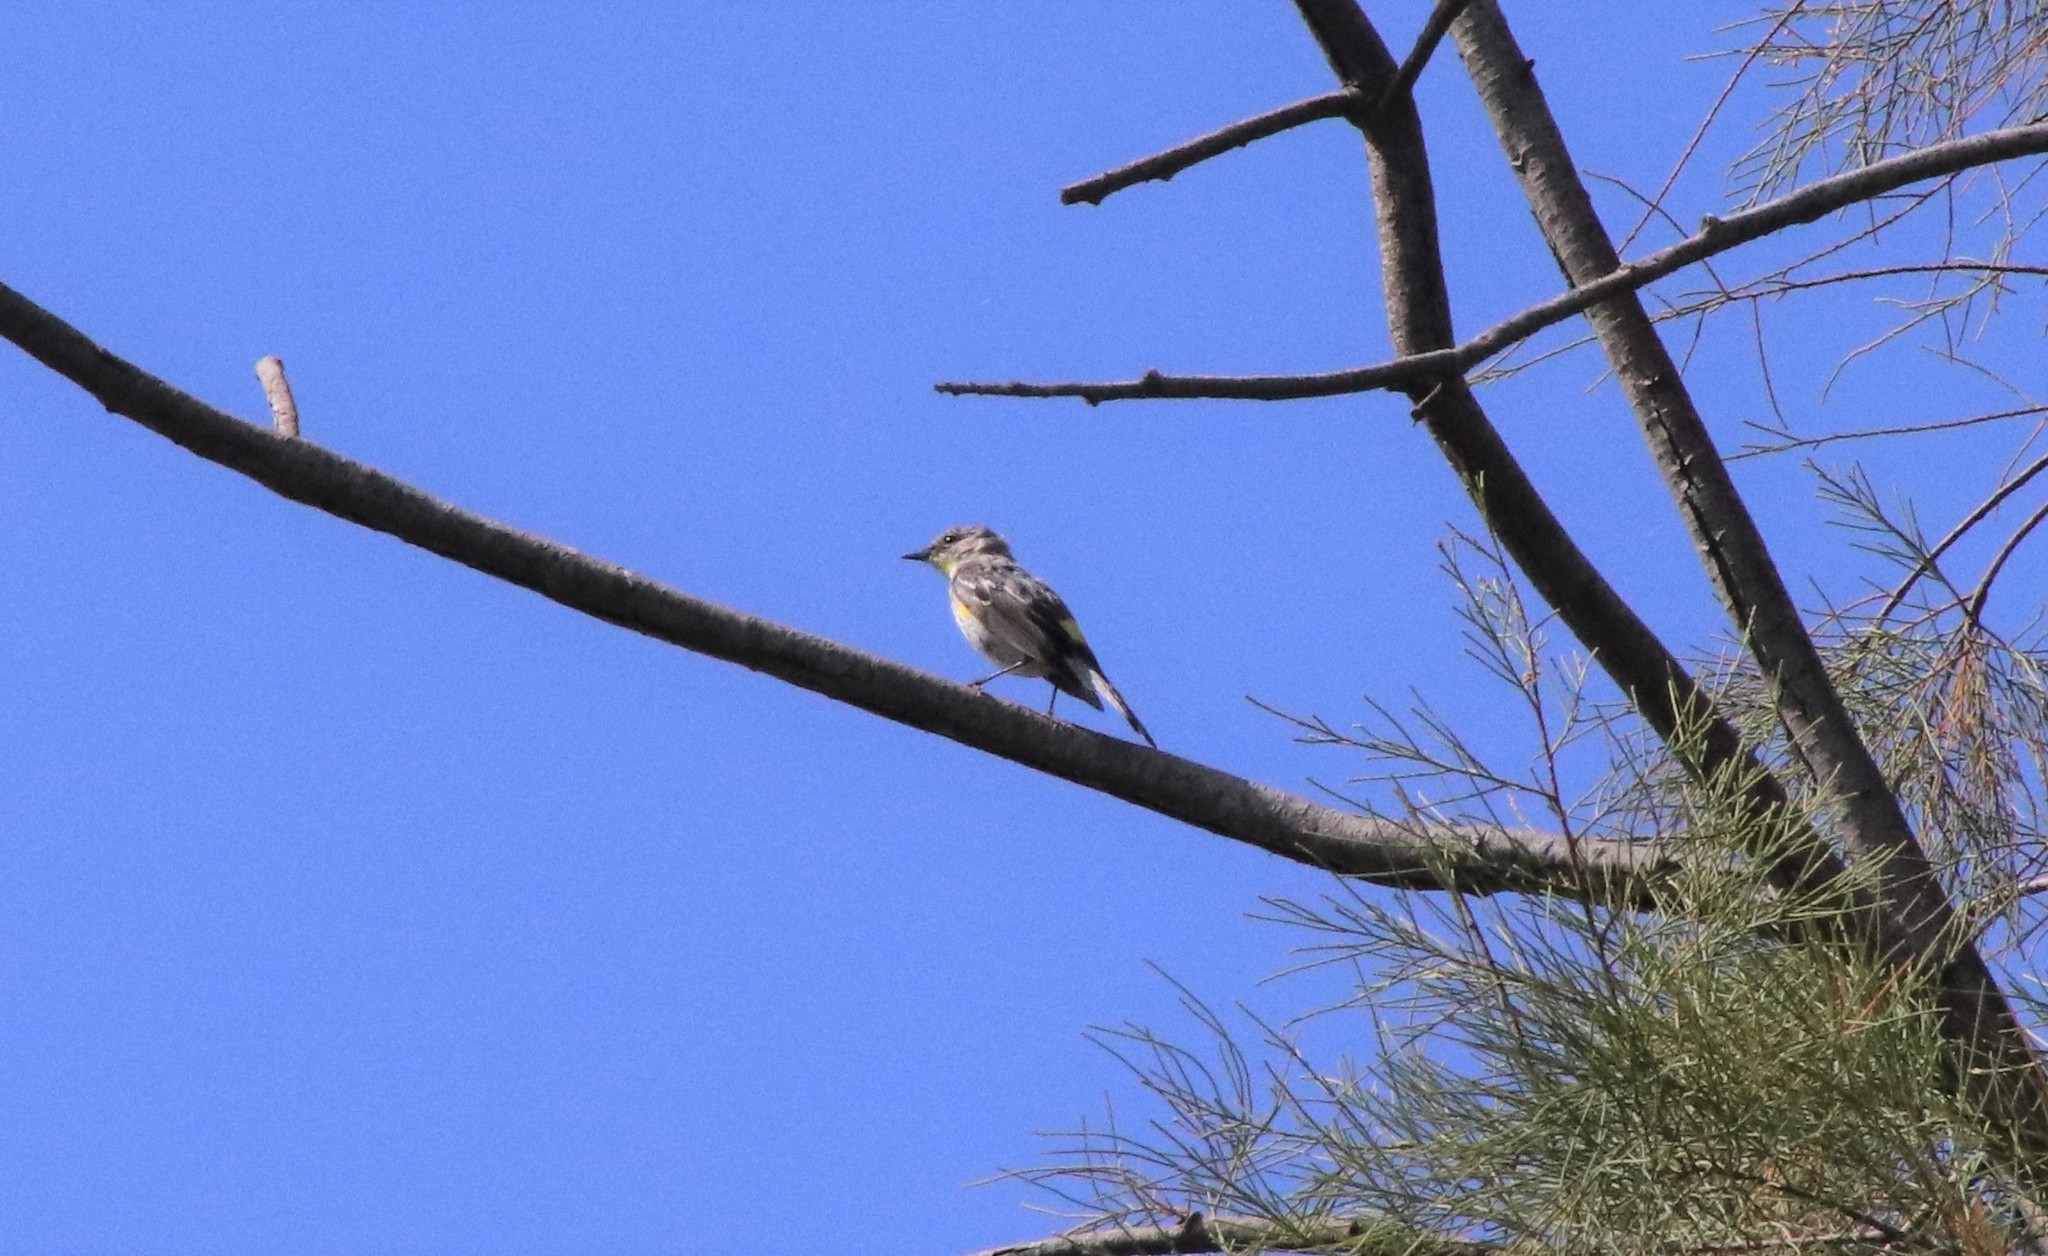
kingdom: Animalia
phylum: Chordata
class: Aves
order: Passeriformes
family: Parulidae
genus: Setophaga
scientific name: Setophaga coronata
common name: Myrtle warbler
